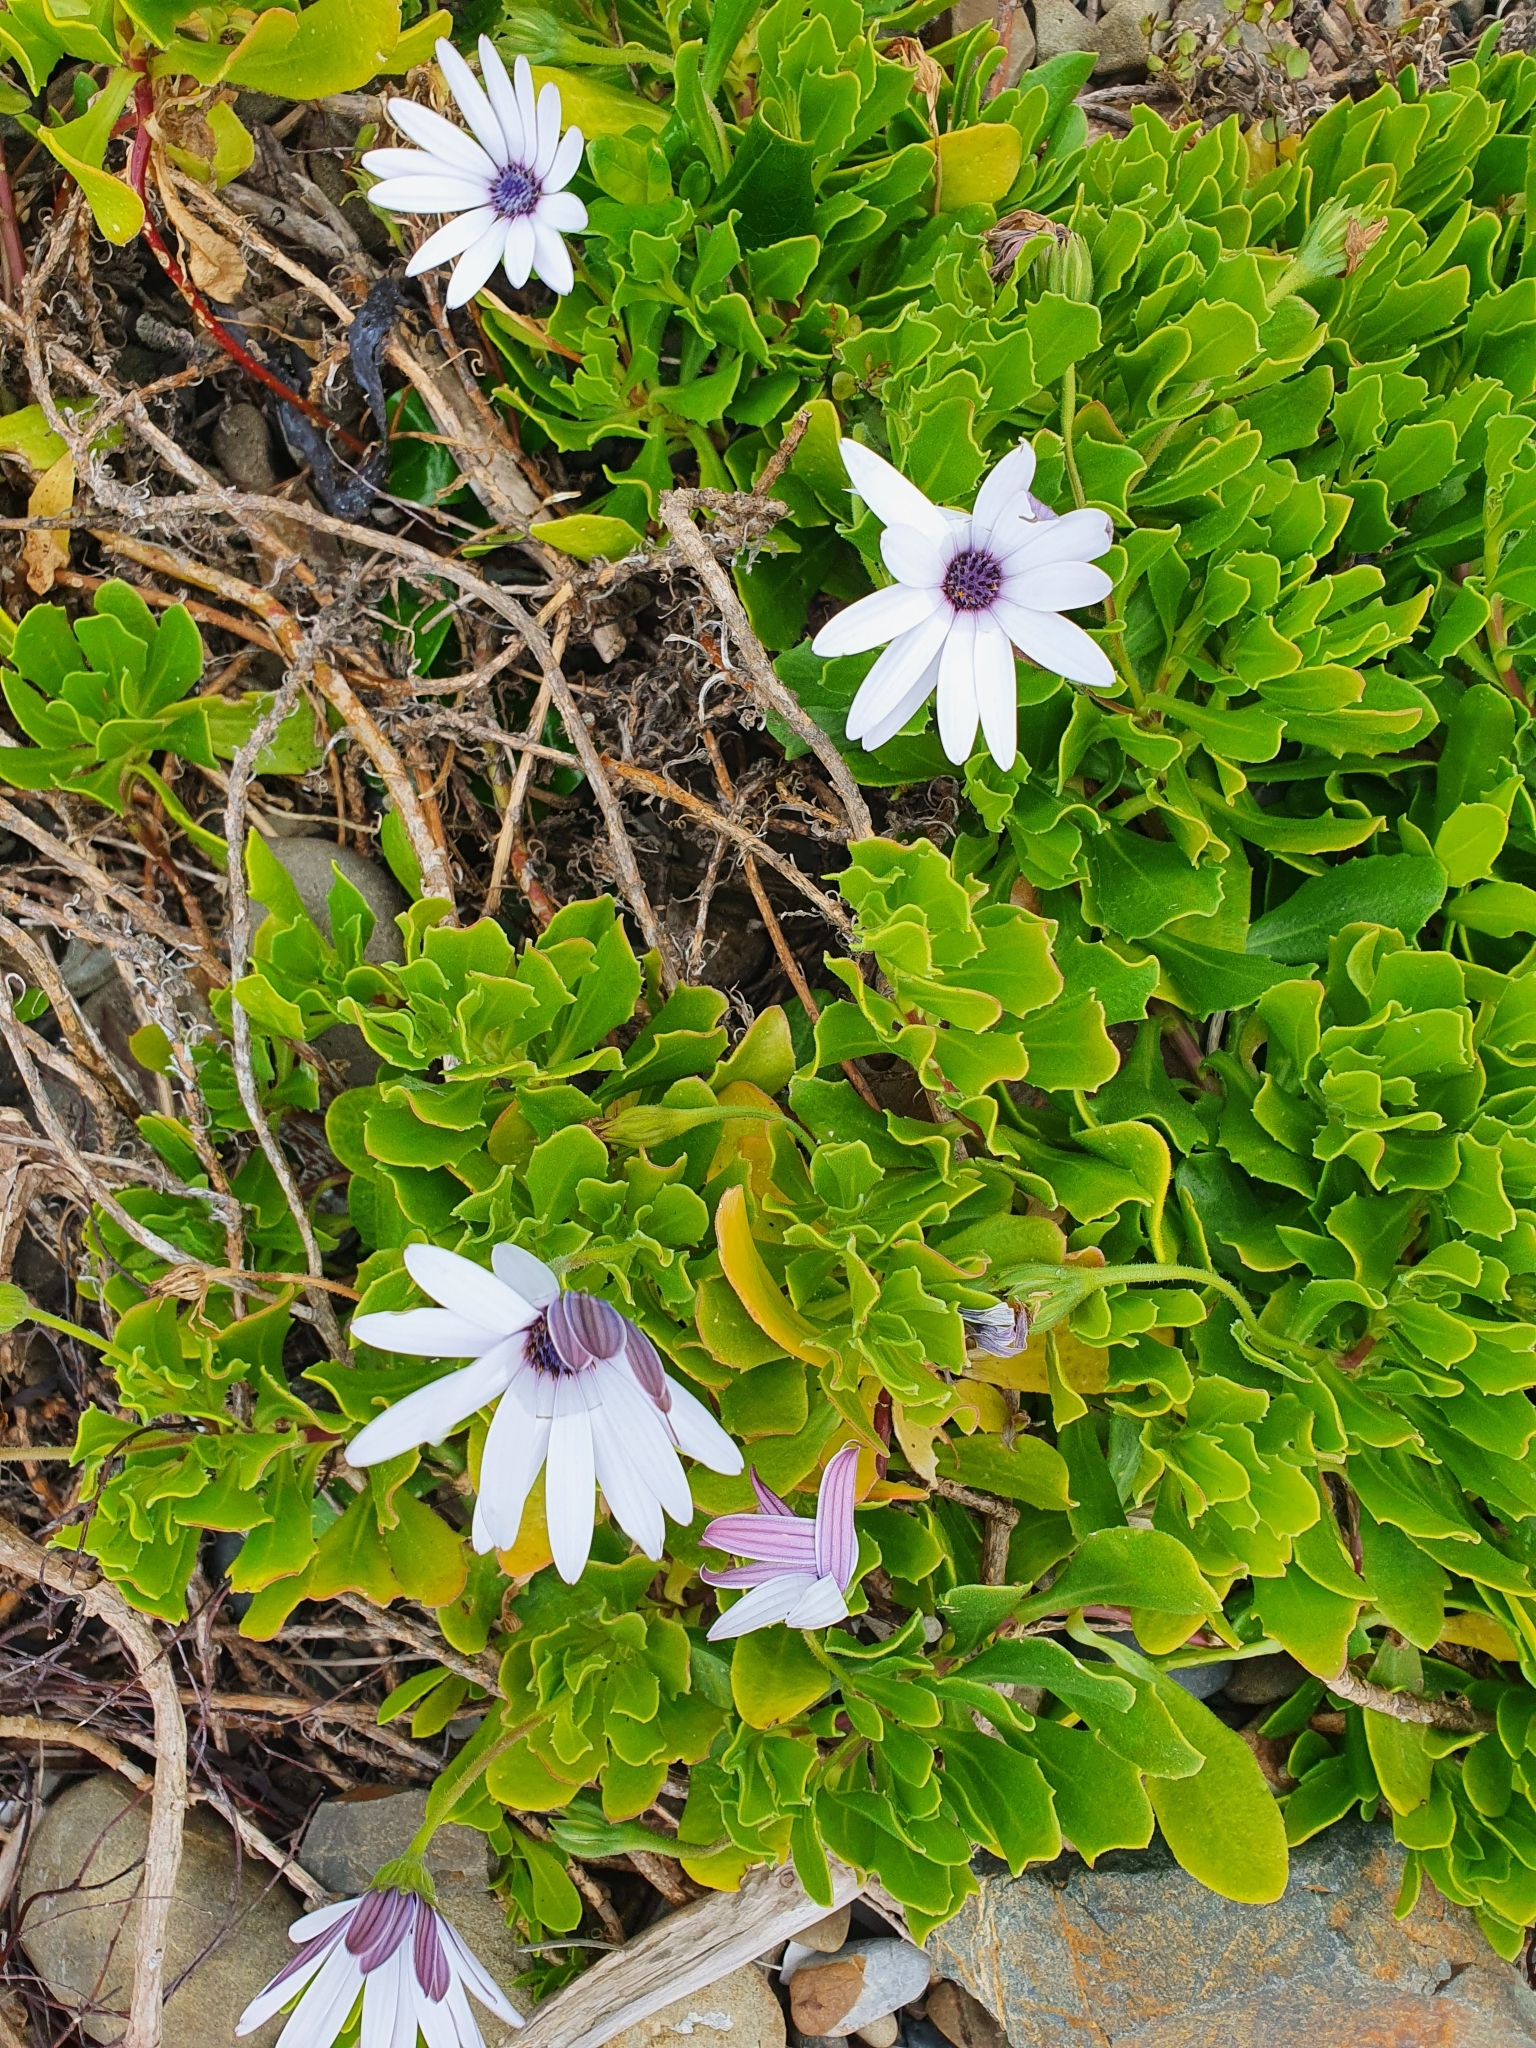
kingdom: Plantae
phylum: Tracheophyta
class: Magnoliopsida
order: Asterales
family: Asteraceae
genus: Dimorphotheca
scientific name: Dimorphotheca fruticosa
